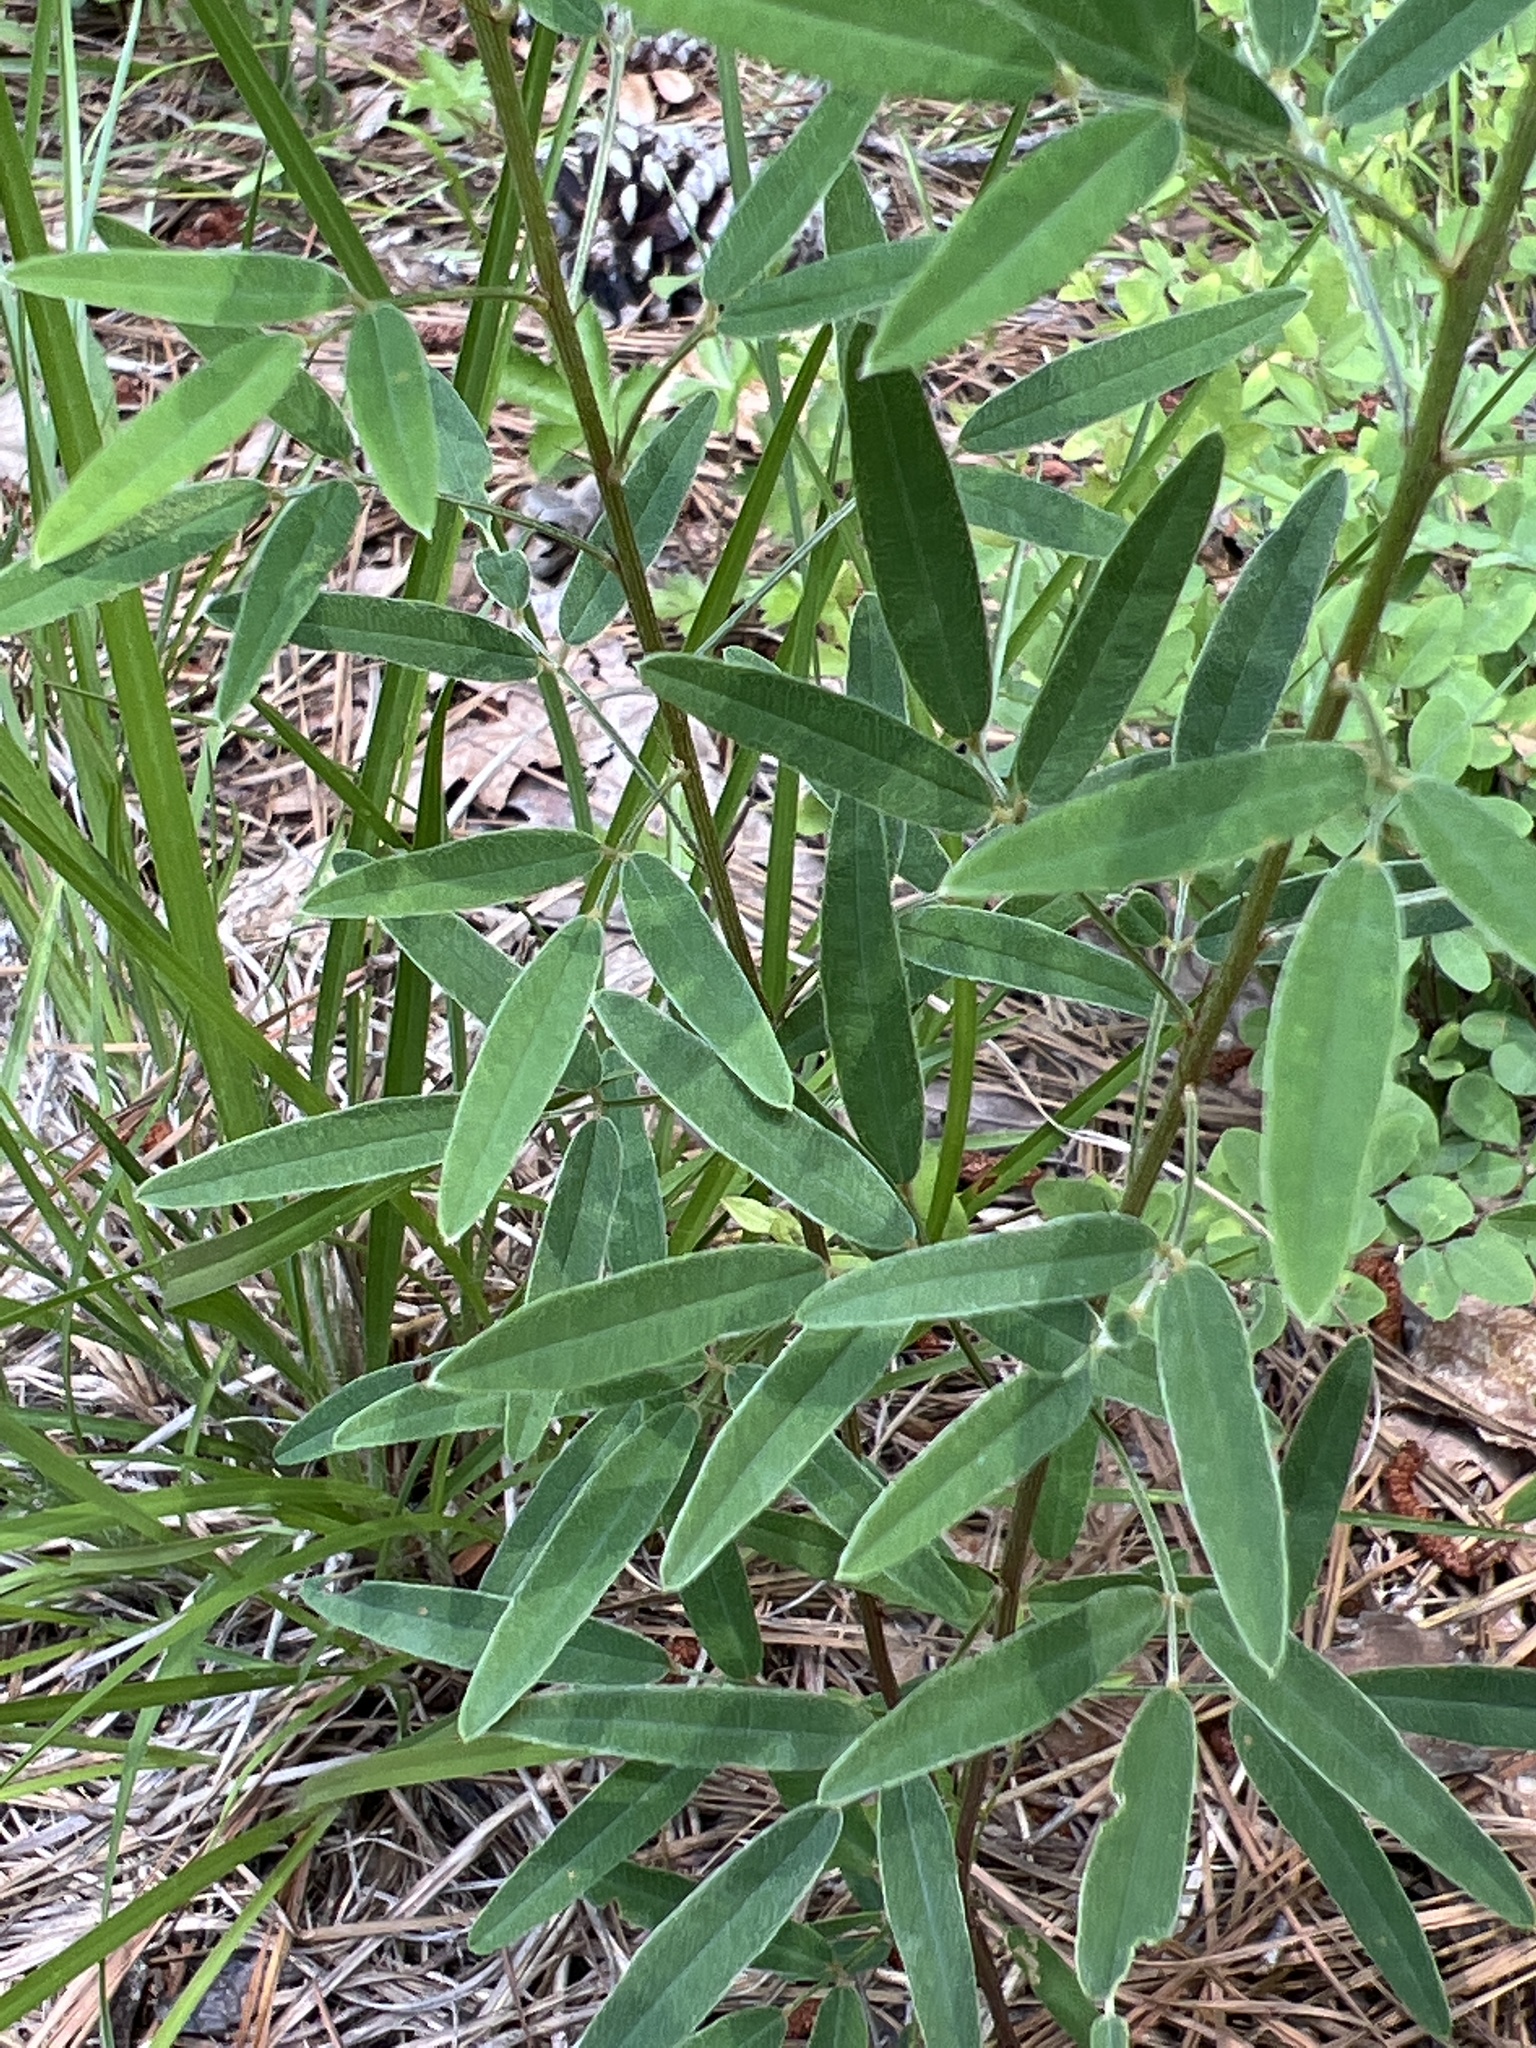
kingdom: Plantae
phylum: Tracheophyta
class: Magnoliopsida
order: Fabales
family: Fabaceae
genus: Lespedeza
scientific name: Lespedeza virginica
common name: Slender bush-clover
